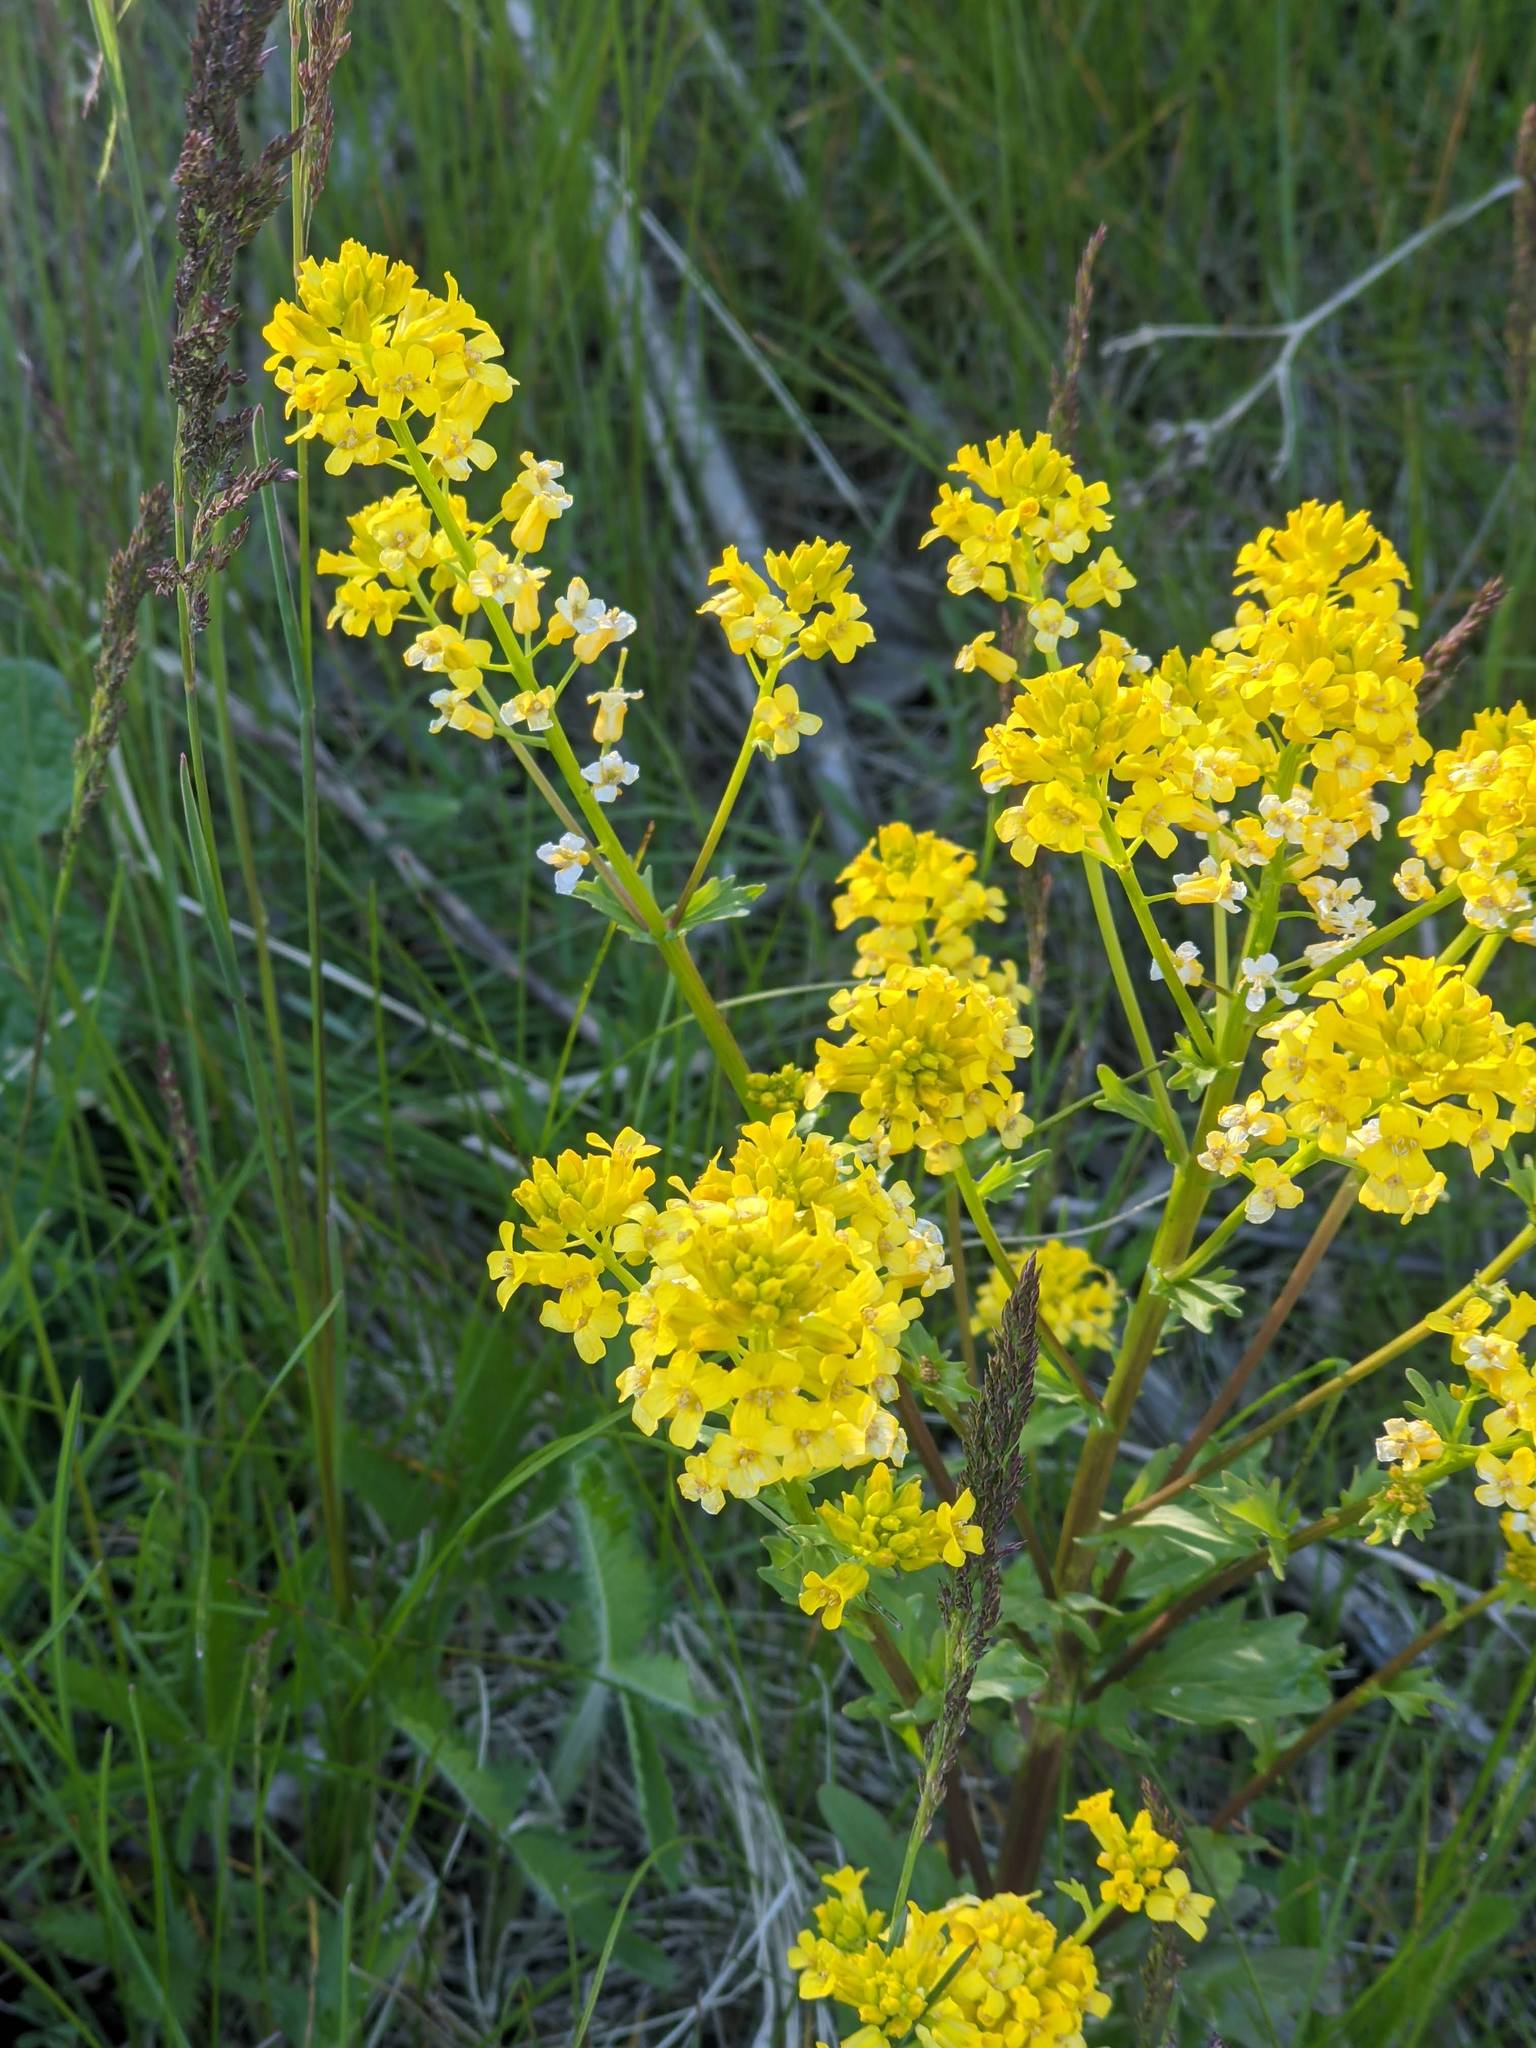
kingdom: Plantae
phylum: Tracheophyta
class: Magnoliopsida
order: Brassicales
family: Brassicaceae
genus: Barbarea
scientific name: Barbarea vulgaris
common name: Cressy-greens
